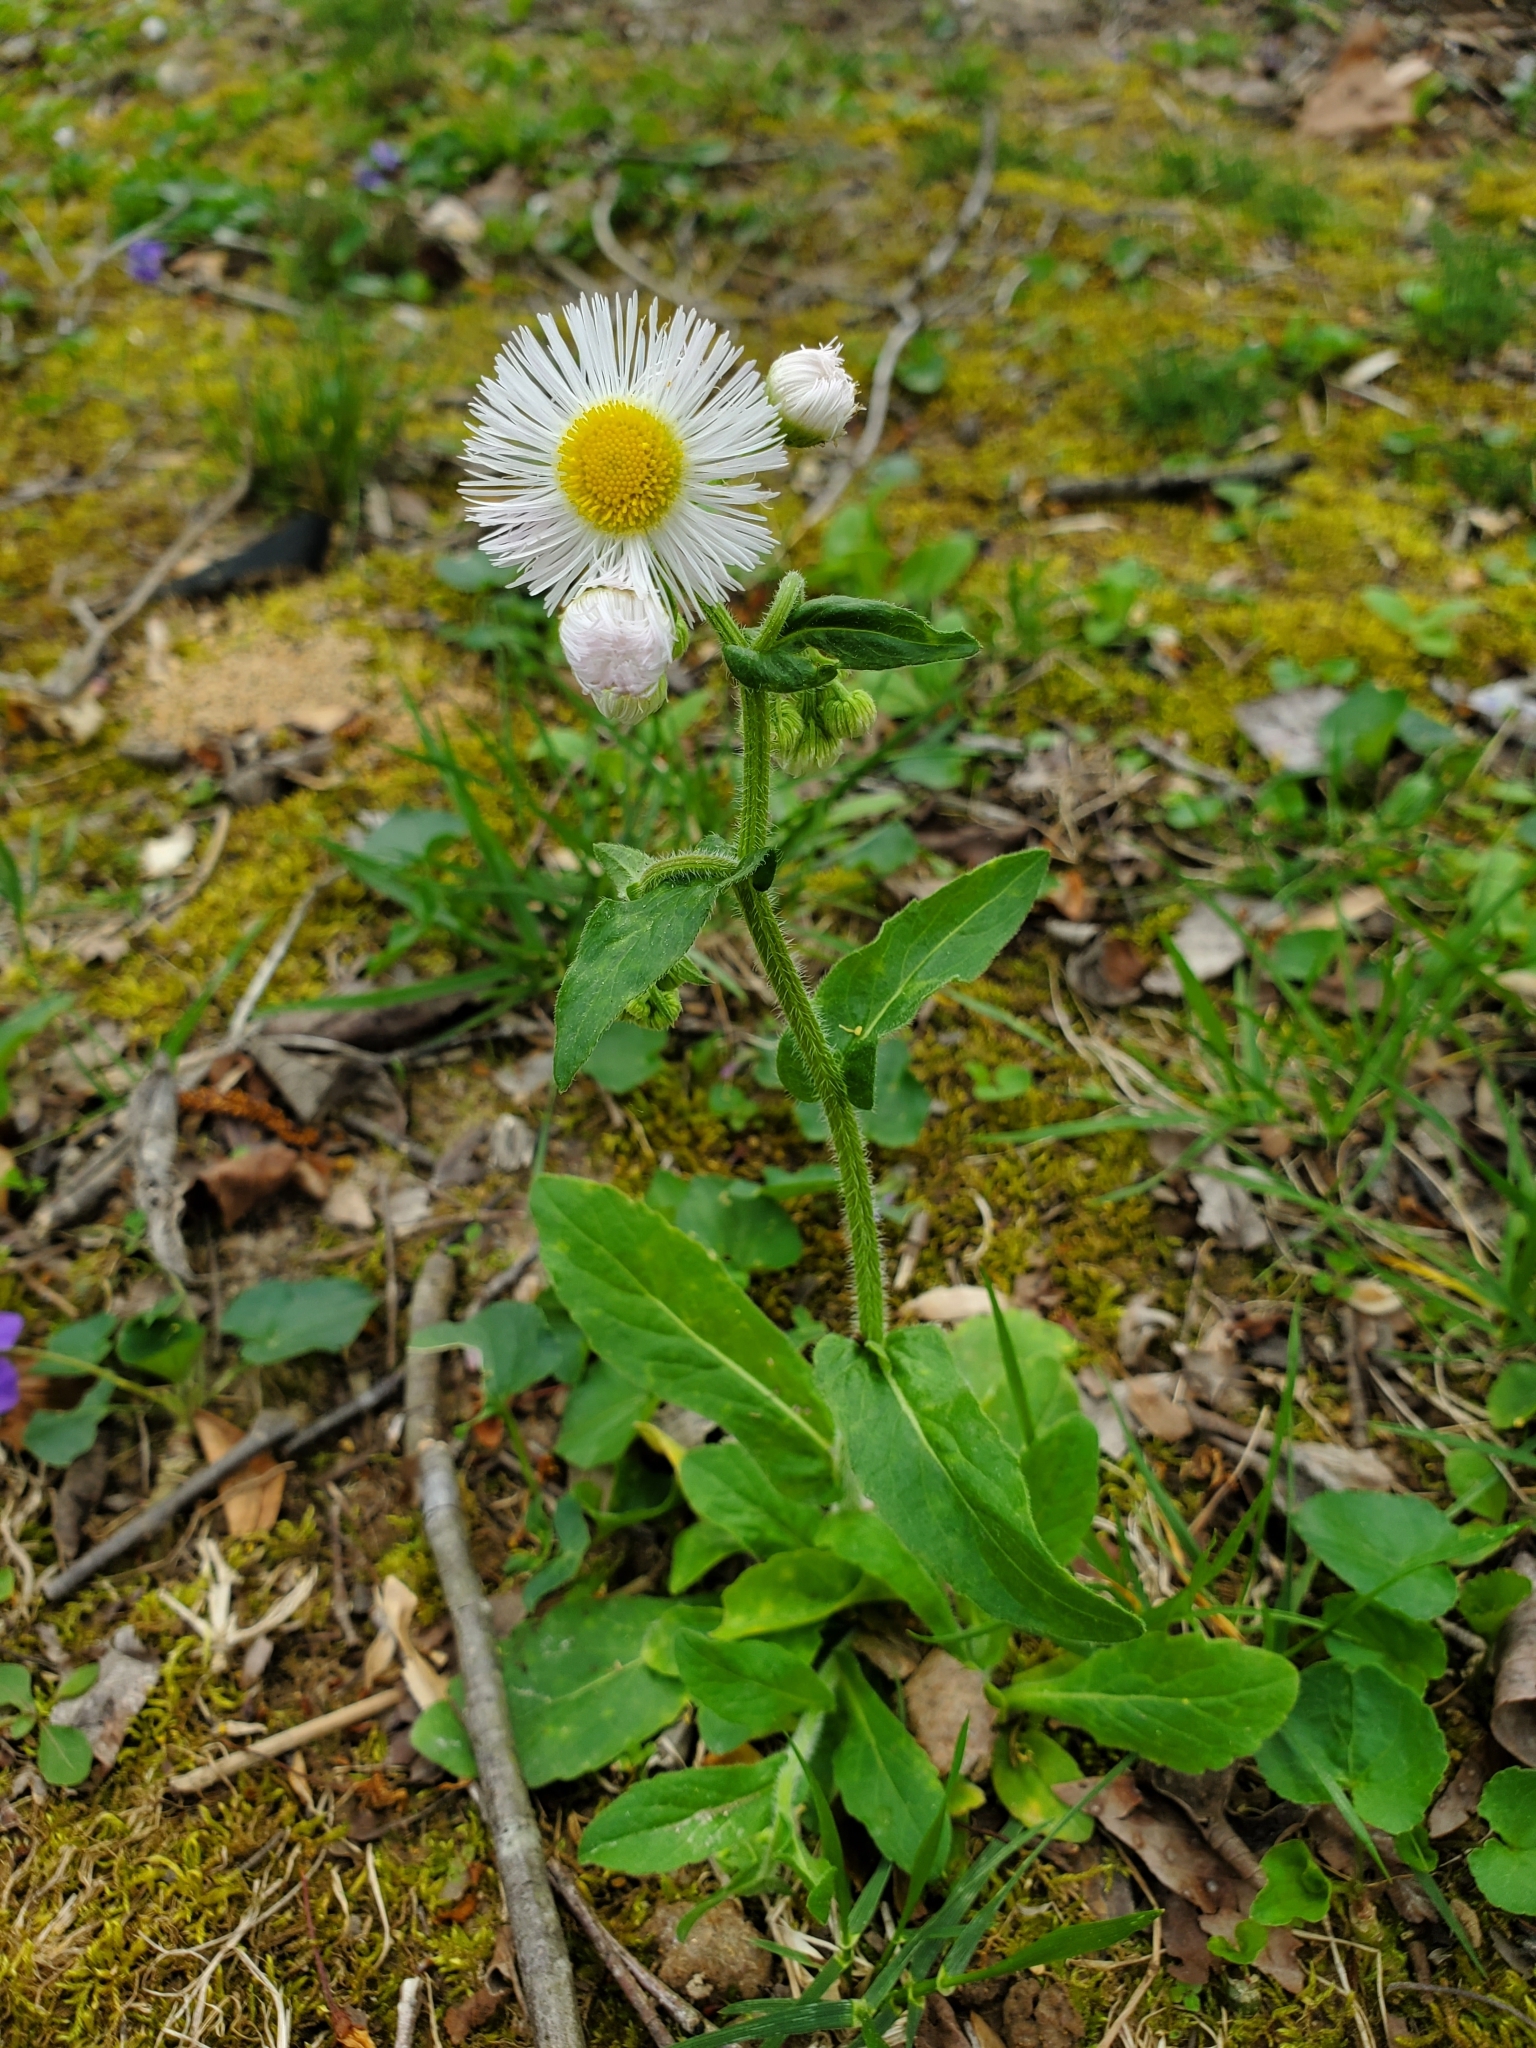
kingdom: Plantae
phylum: Tracheophyta
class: Magnoliopsida
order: Asterales
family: Asteraceae
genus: Erigeron
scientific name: Erigeron philadelphicus
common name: Robin's-plantain
